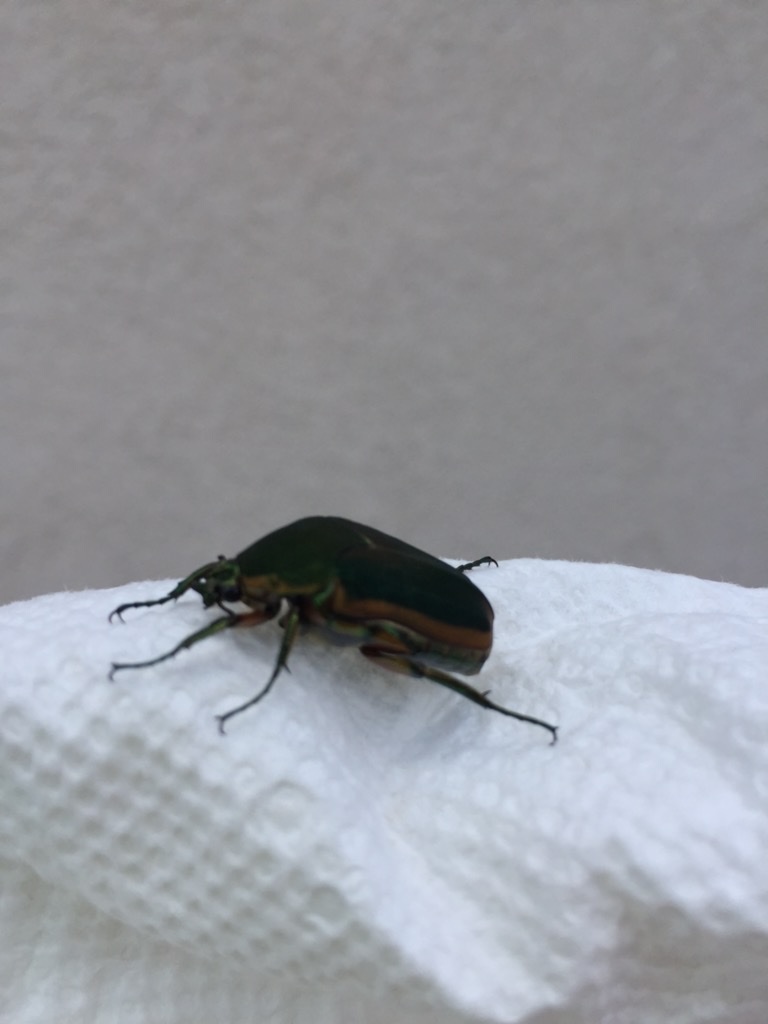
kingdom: Animalia
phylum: Arthropoda
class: Insecta
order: Coleoptera
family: Scarabaeidae
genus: Cotinis
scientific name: Cotinis nitida
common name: Common green june beetle
